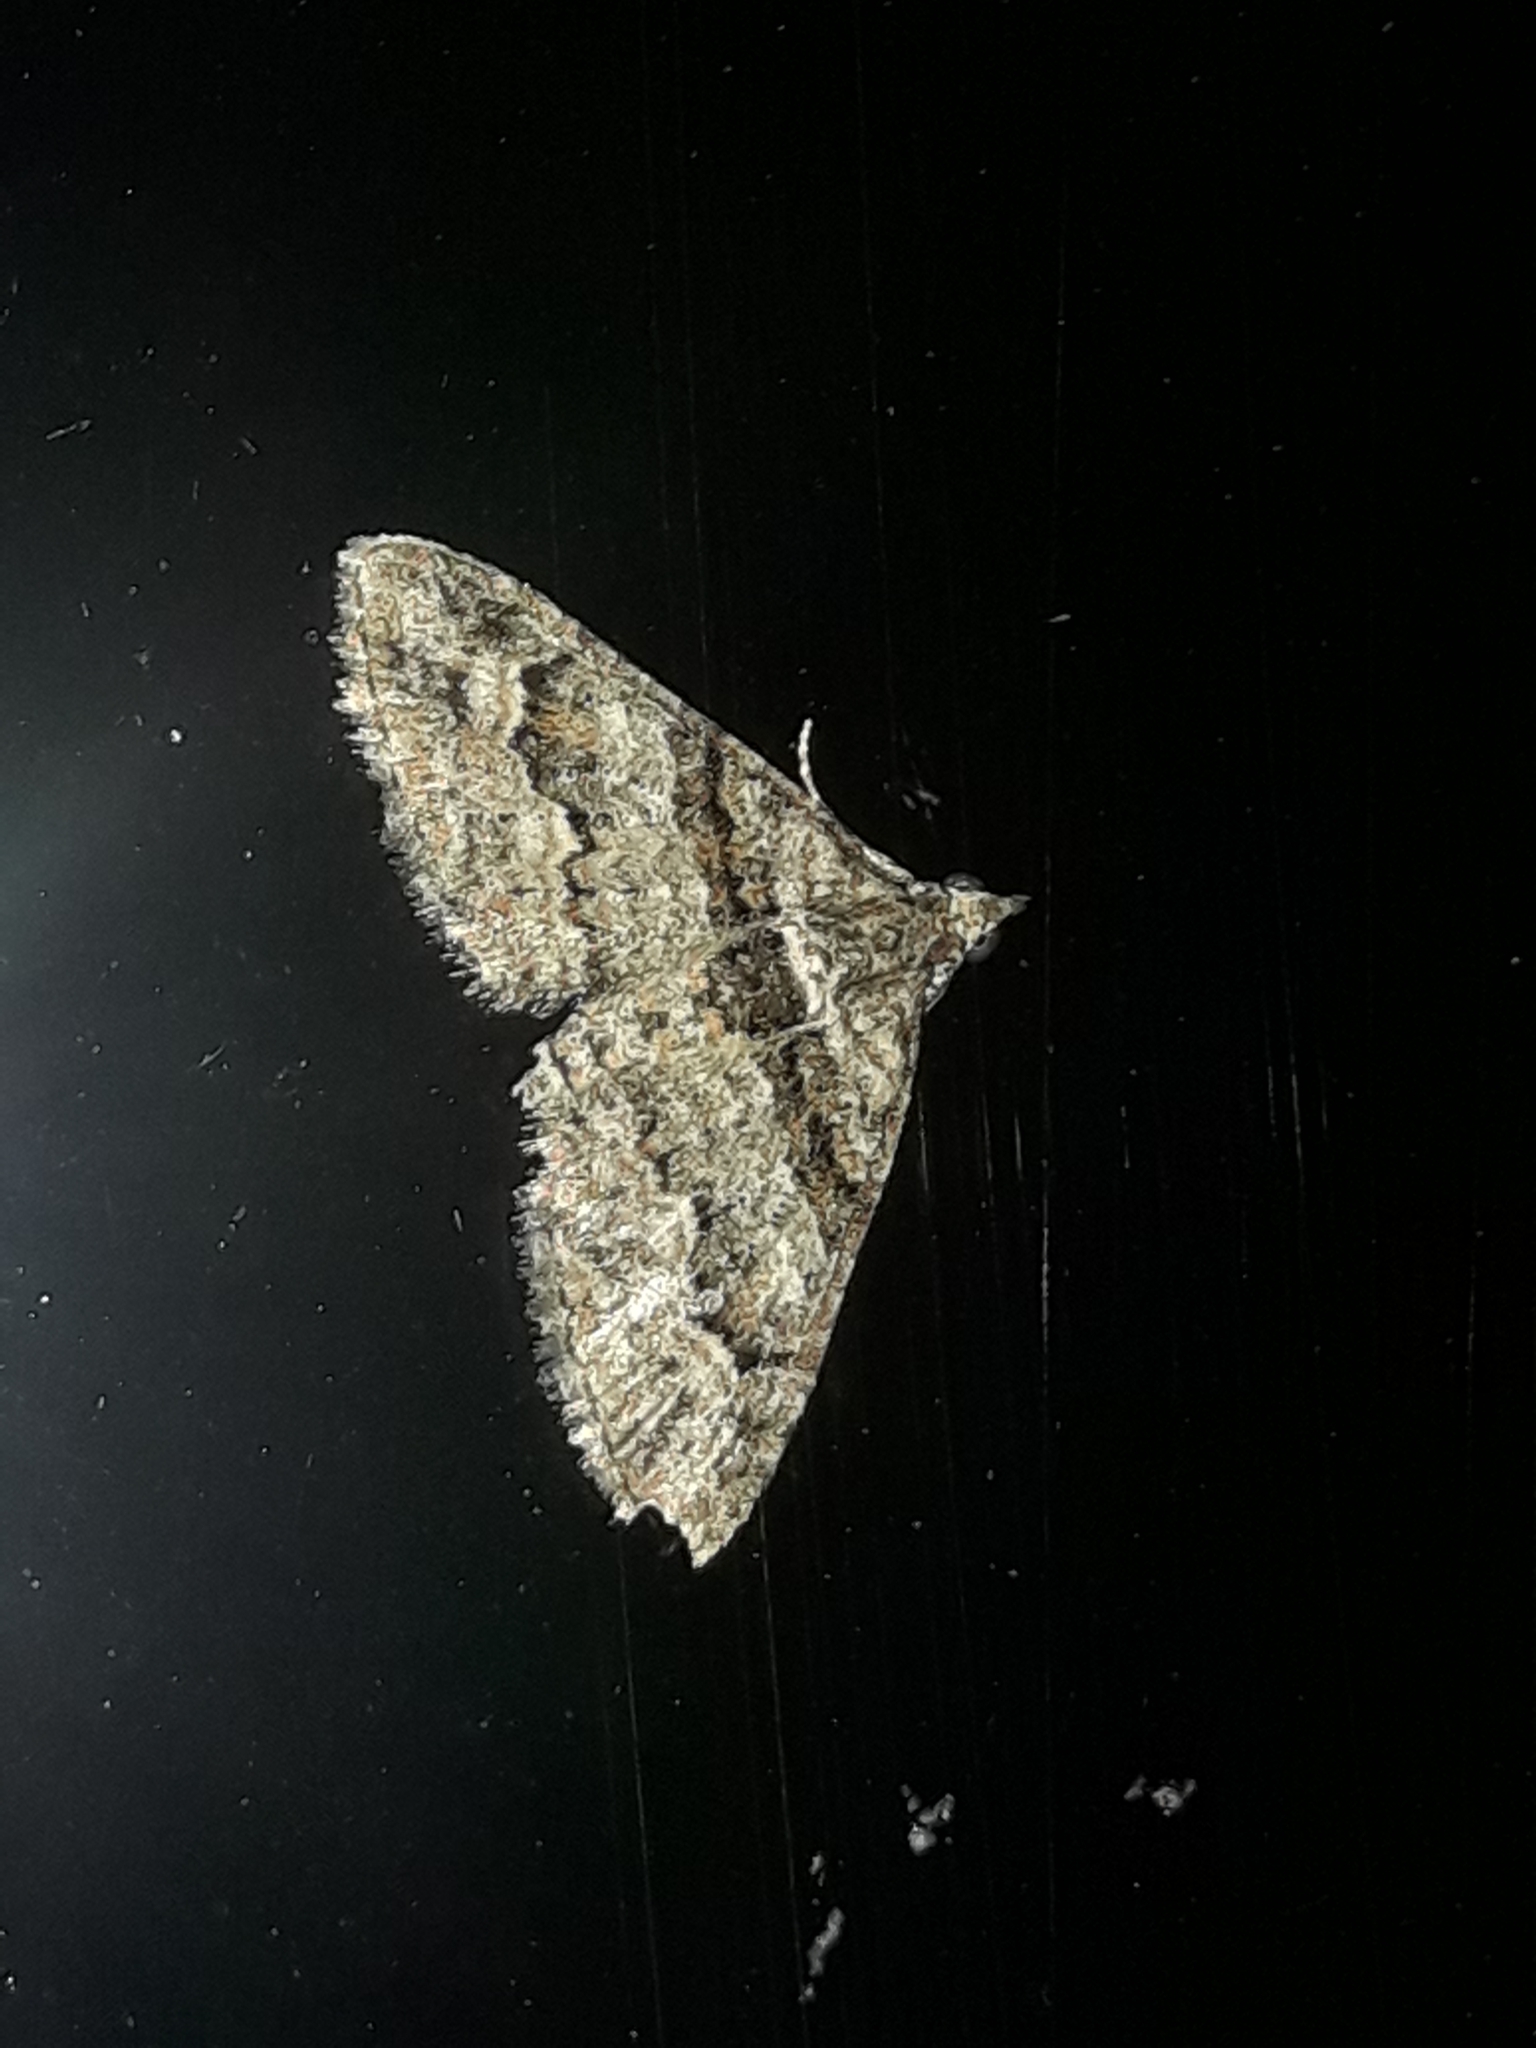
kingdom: Animalia
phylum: Arthropoda
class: Insecta
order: Lepidoptera
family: Geometridae
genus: Phrissogonus
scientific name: Phrissogonus laticostata
